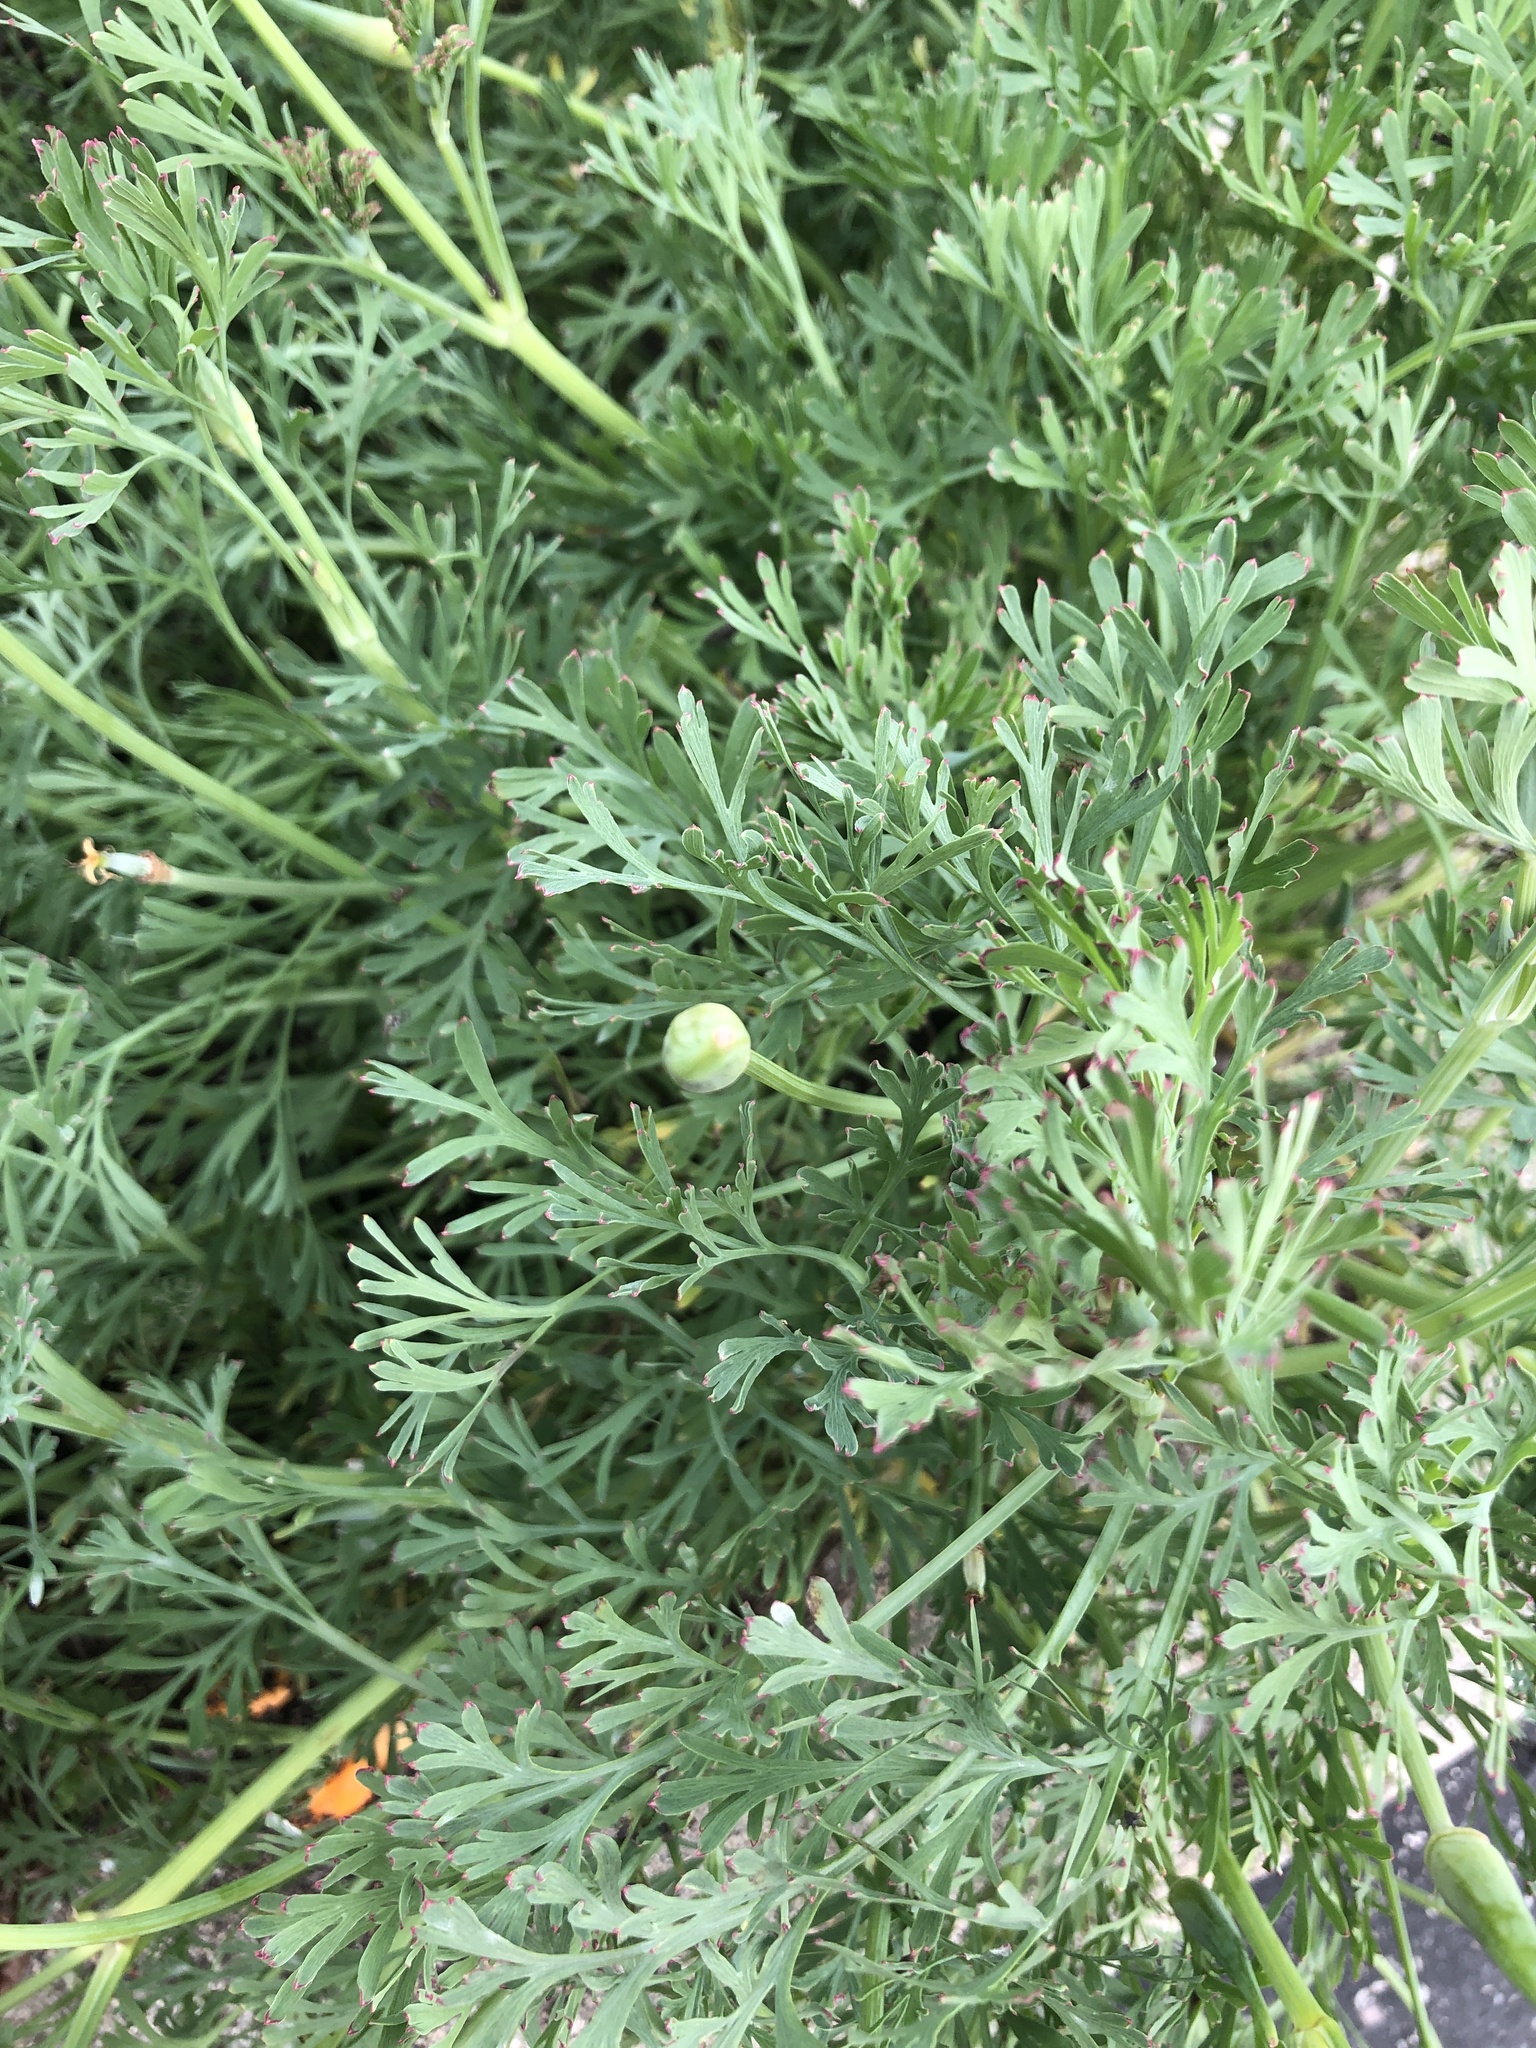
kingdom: Plantae
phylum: Tracheophyta
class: Magnoliopsida
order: Ranunculales
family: Papaveraceae
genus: Eschscholzia
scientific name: Eschscholzia californica
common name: California poppy
